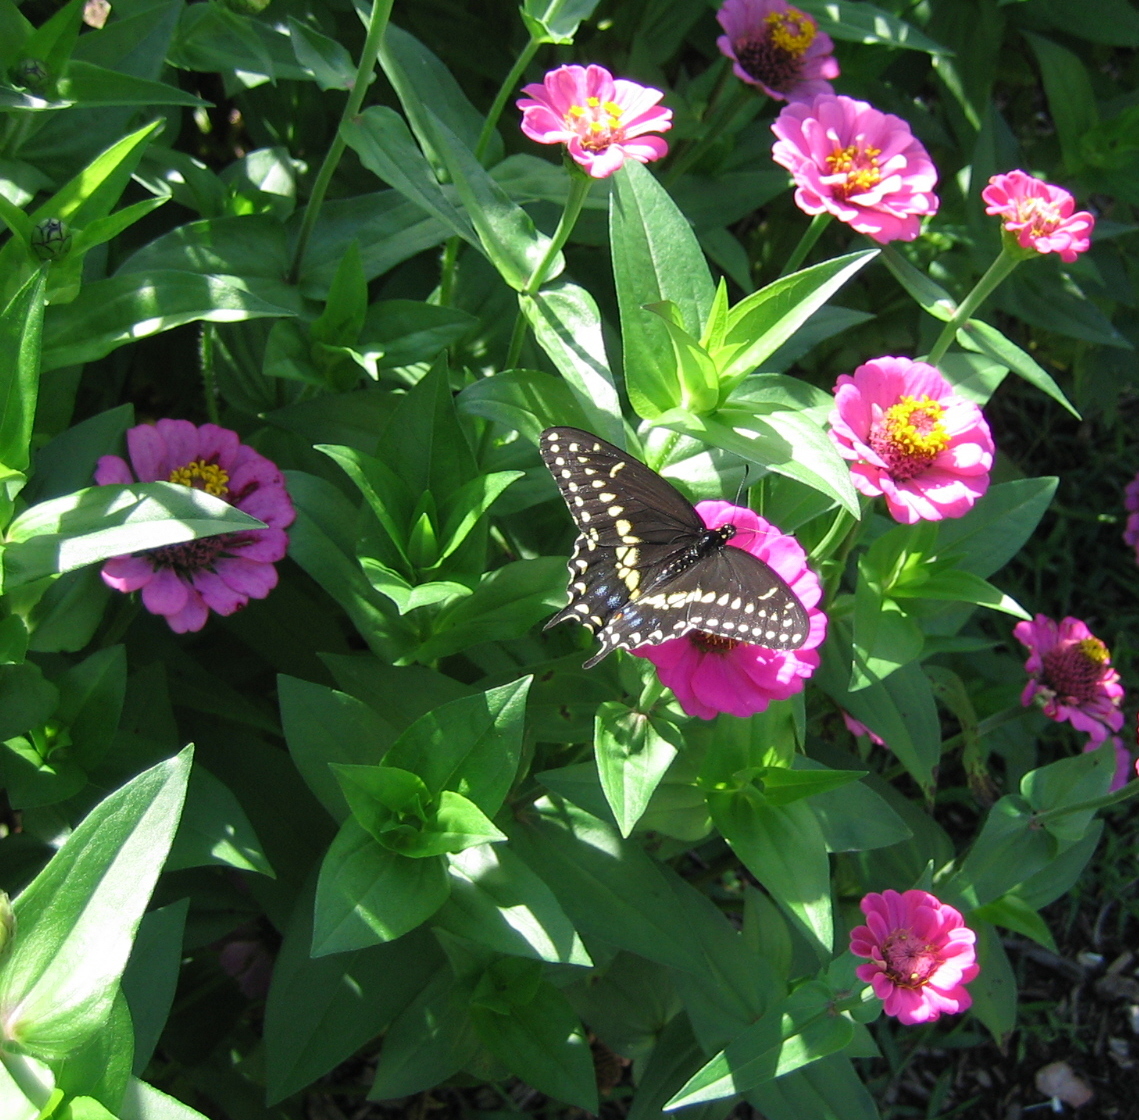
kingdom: Animalia
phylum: Arthropoda
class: Insecta
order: Lepidoptera
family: Papilionidae
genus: Papilio
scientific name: Papilio polyxenes
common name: Black swallowtail
